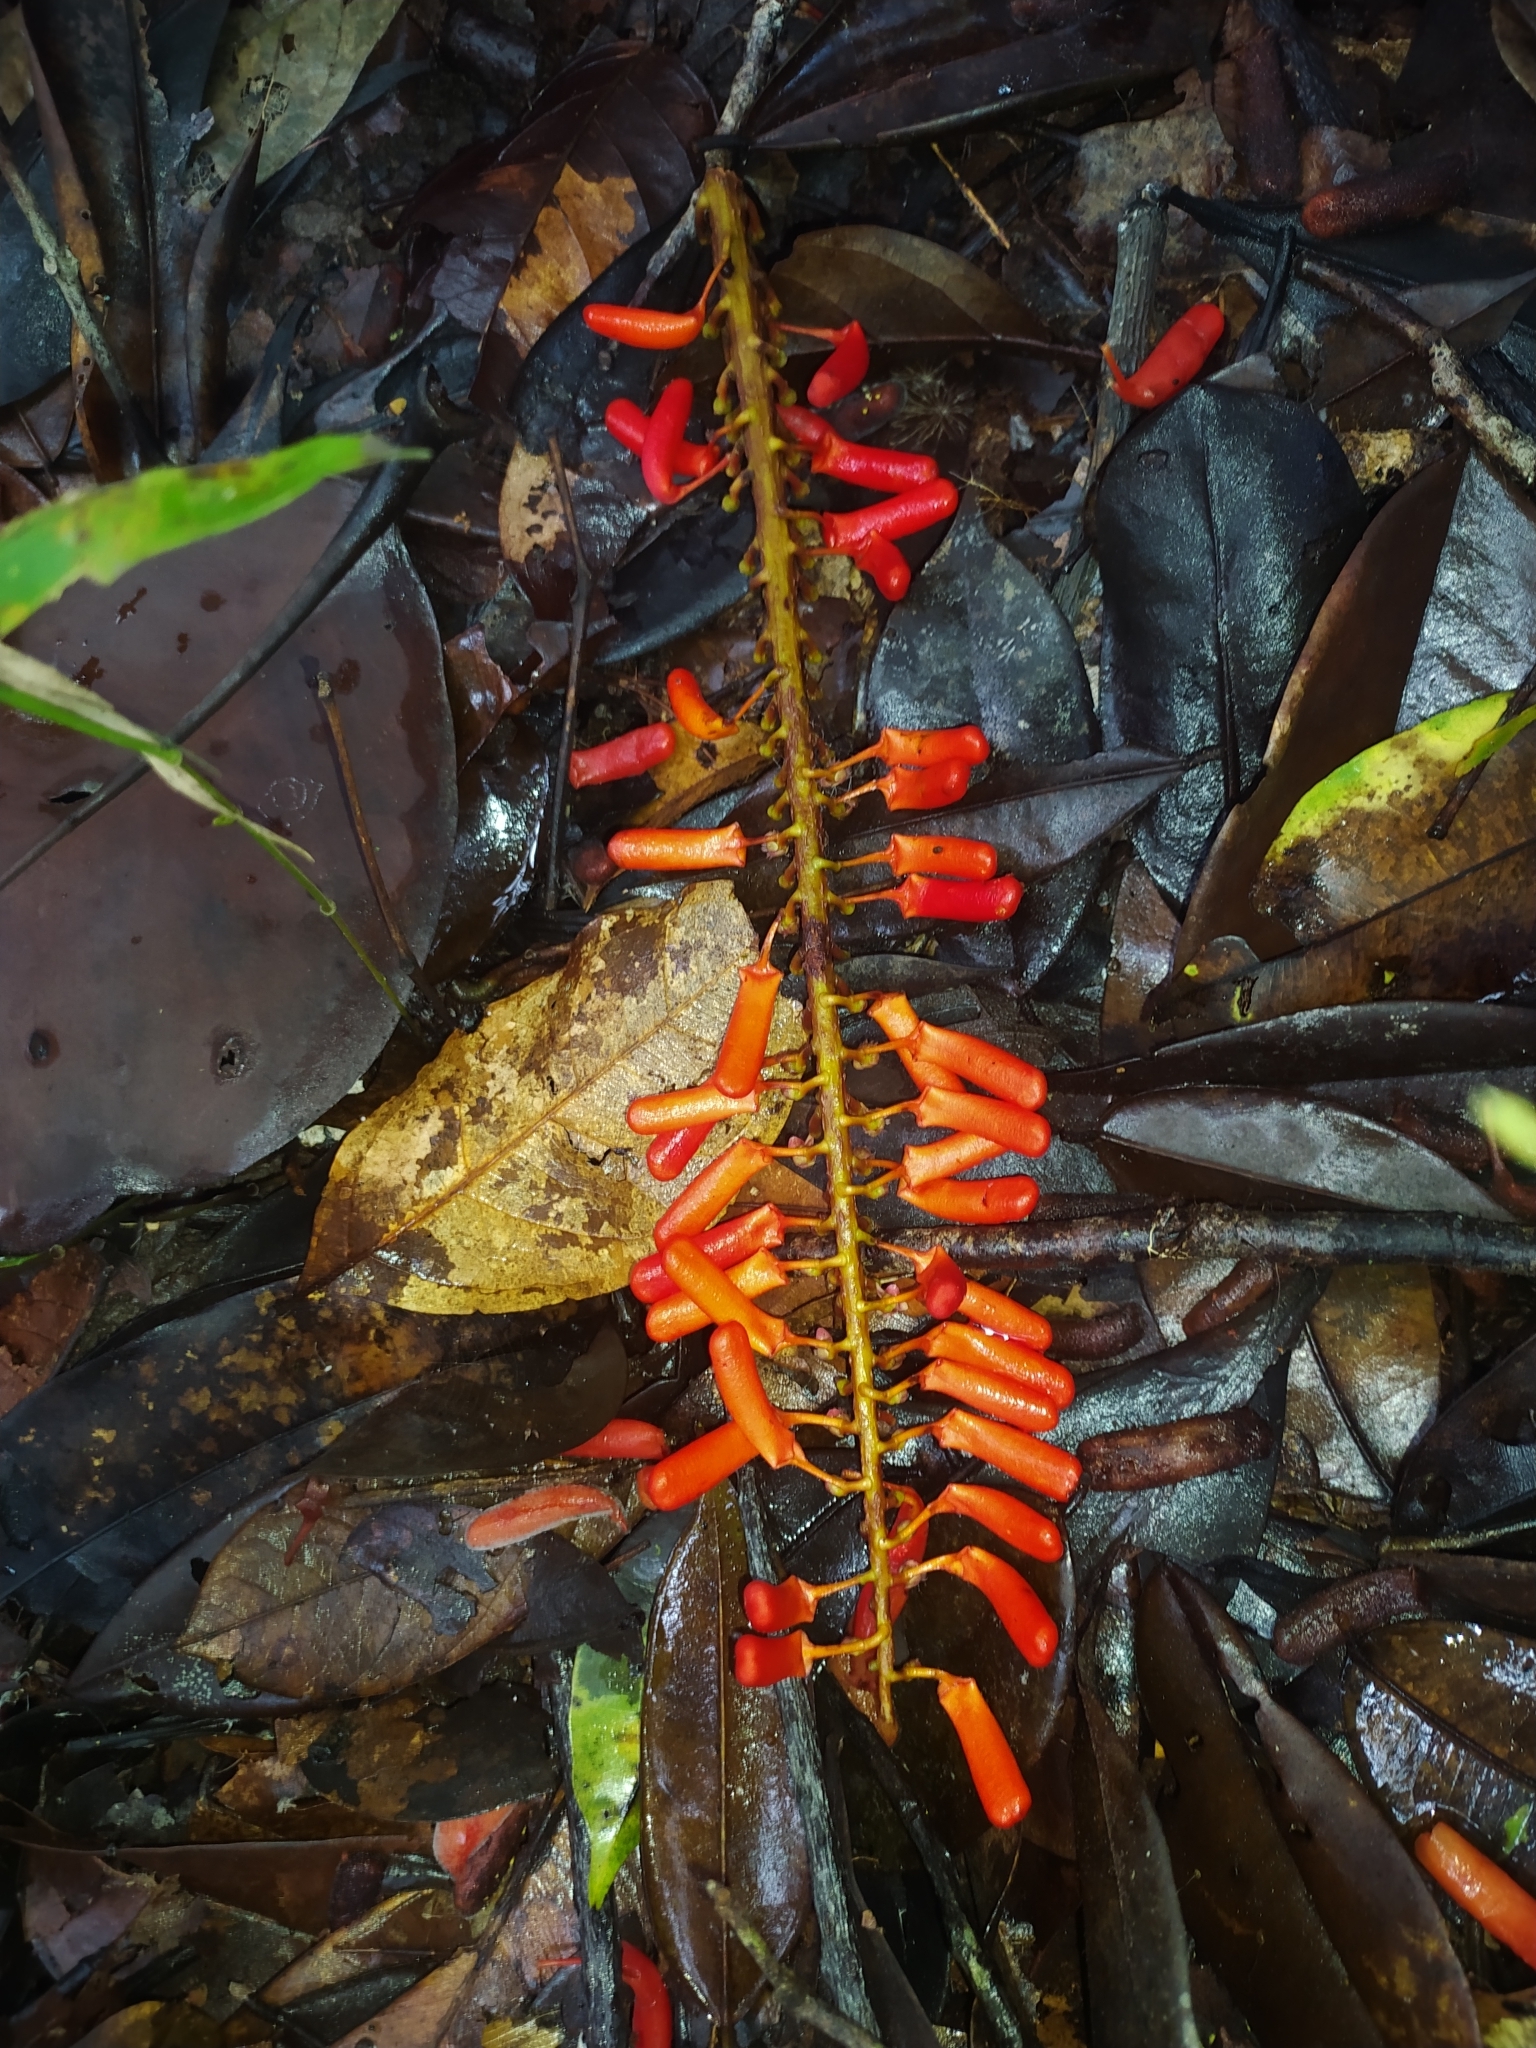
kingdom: Plantae
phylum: Tracheophyta
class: Magnoliopsida
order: Ericales
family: Marcgraviaceae
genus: Norantea
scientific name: Norantea guianensis
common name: Red hot poker vine
